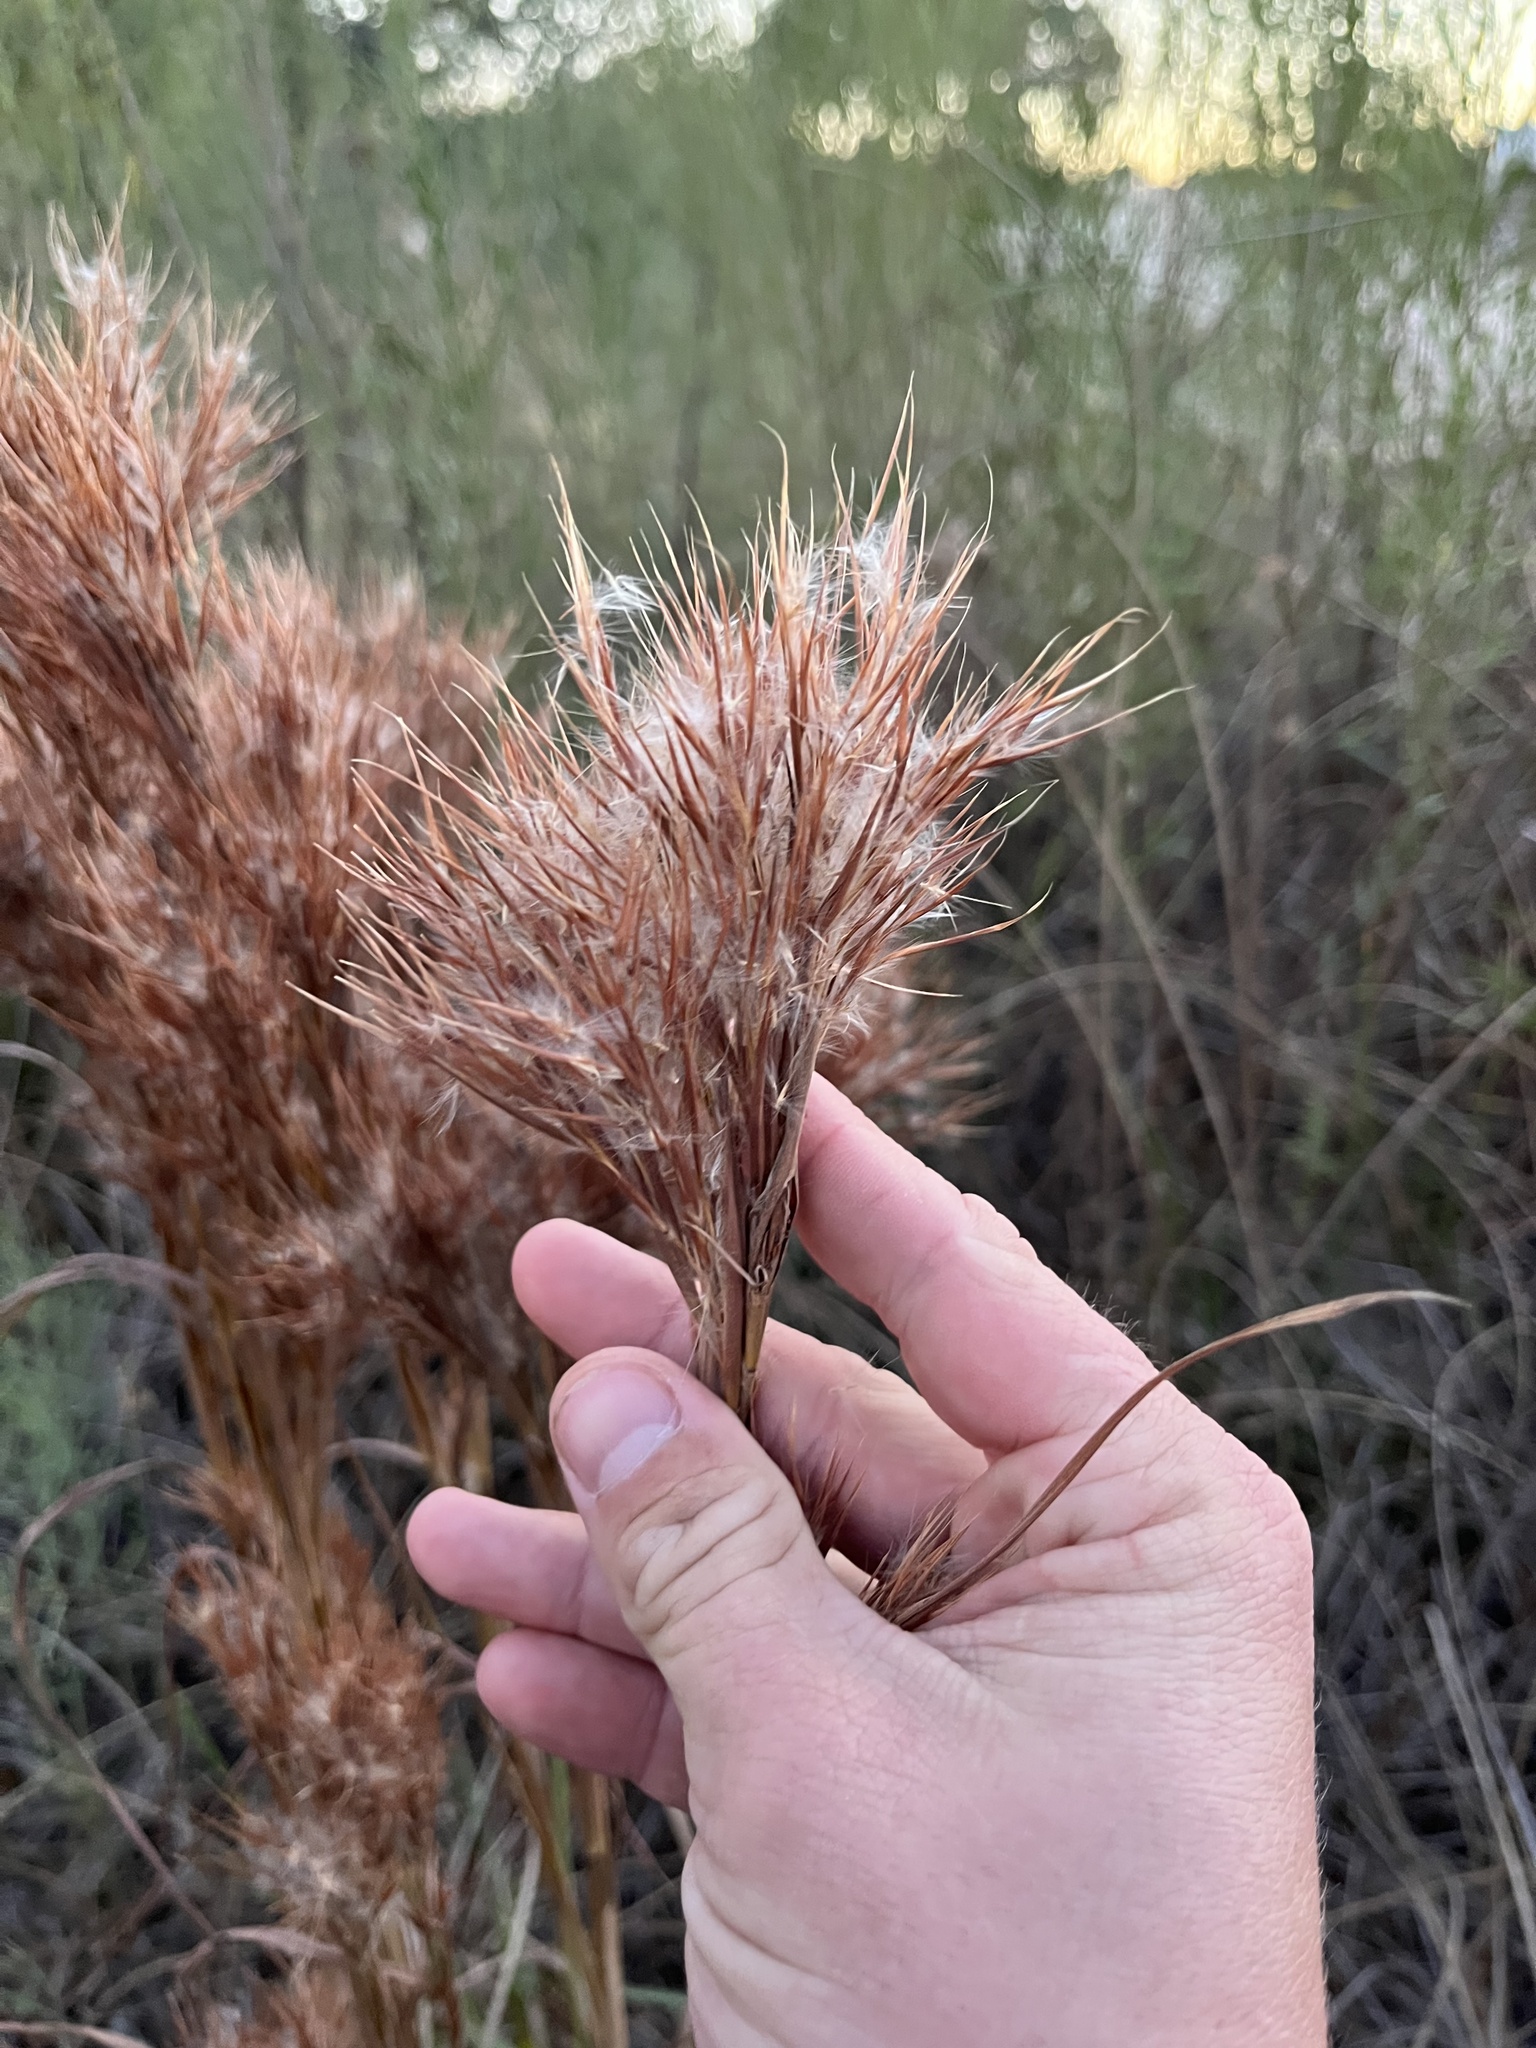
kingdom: Plantae
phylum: Tracheophyta
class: Liliopsida
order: Poales
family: Poaceae
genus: Andropogon
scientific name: Andropogon tenuispatheus
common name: Bushy bluestem
